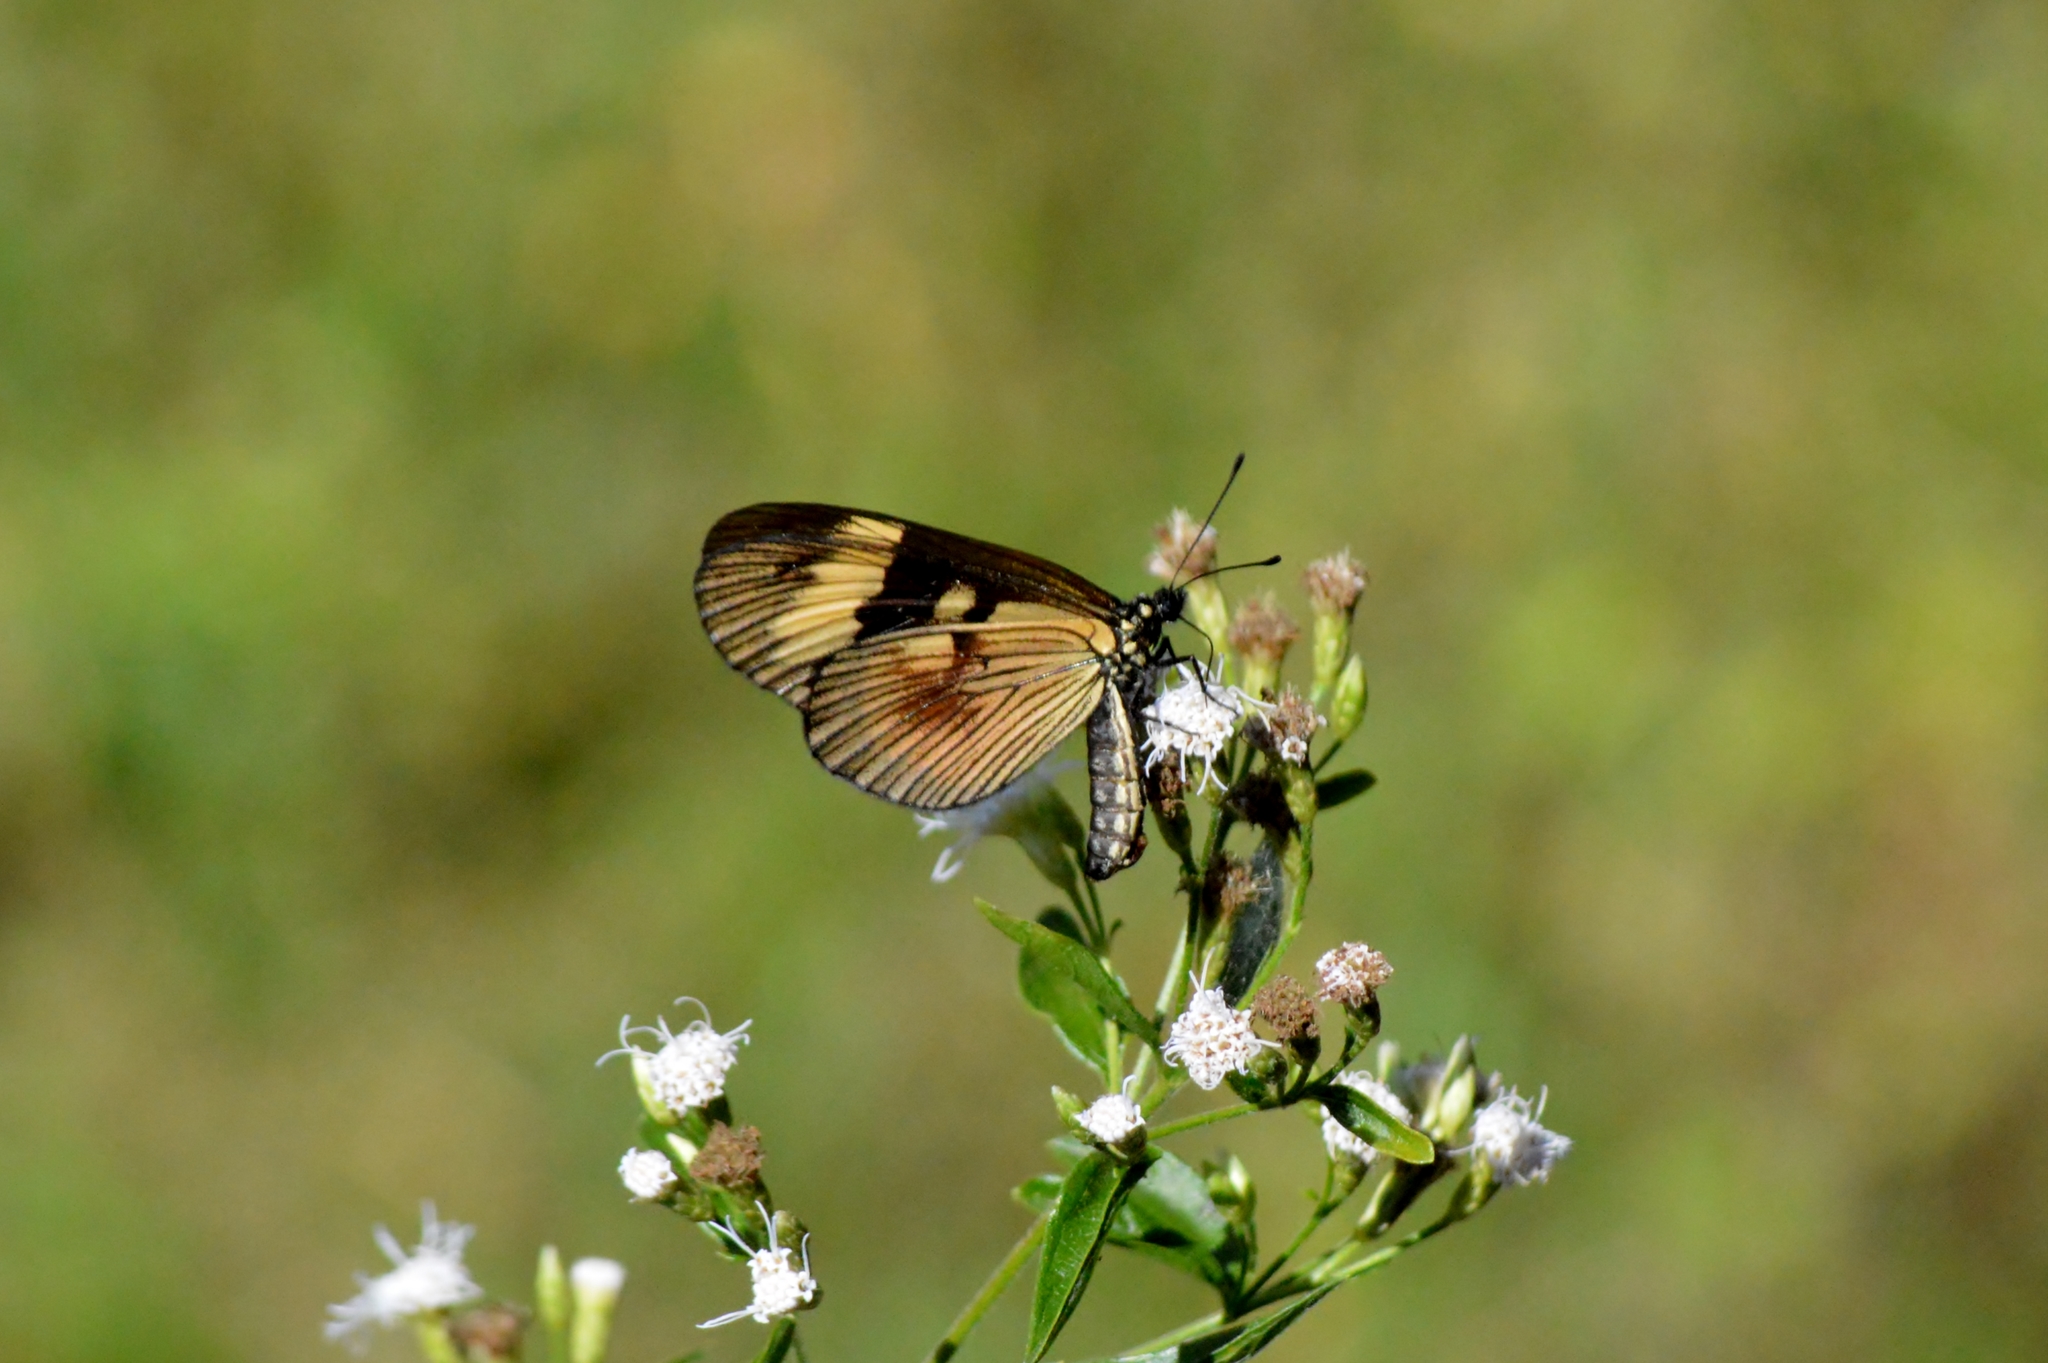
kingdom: Animalia
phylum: Arthropoda
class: Insecta
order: Lepidoptera
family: Nymphalidae
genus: Actinote
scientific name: Actinote pellenea
